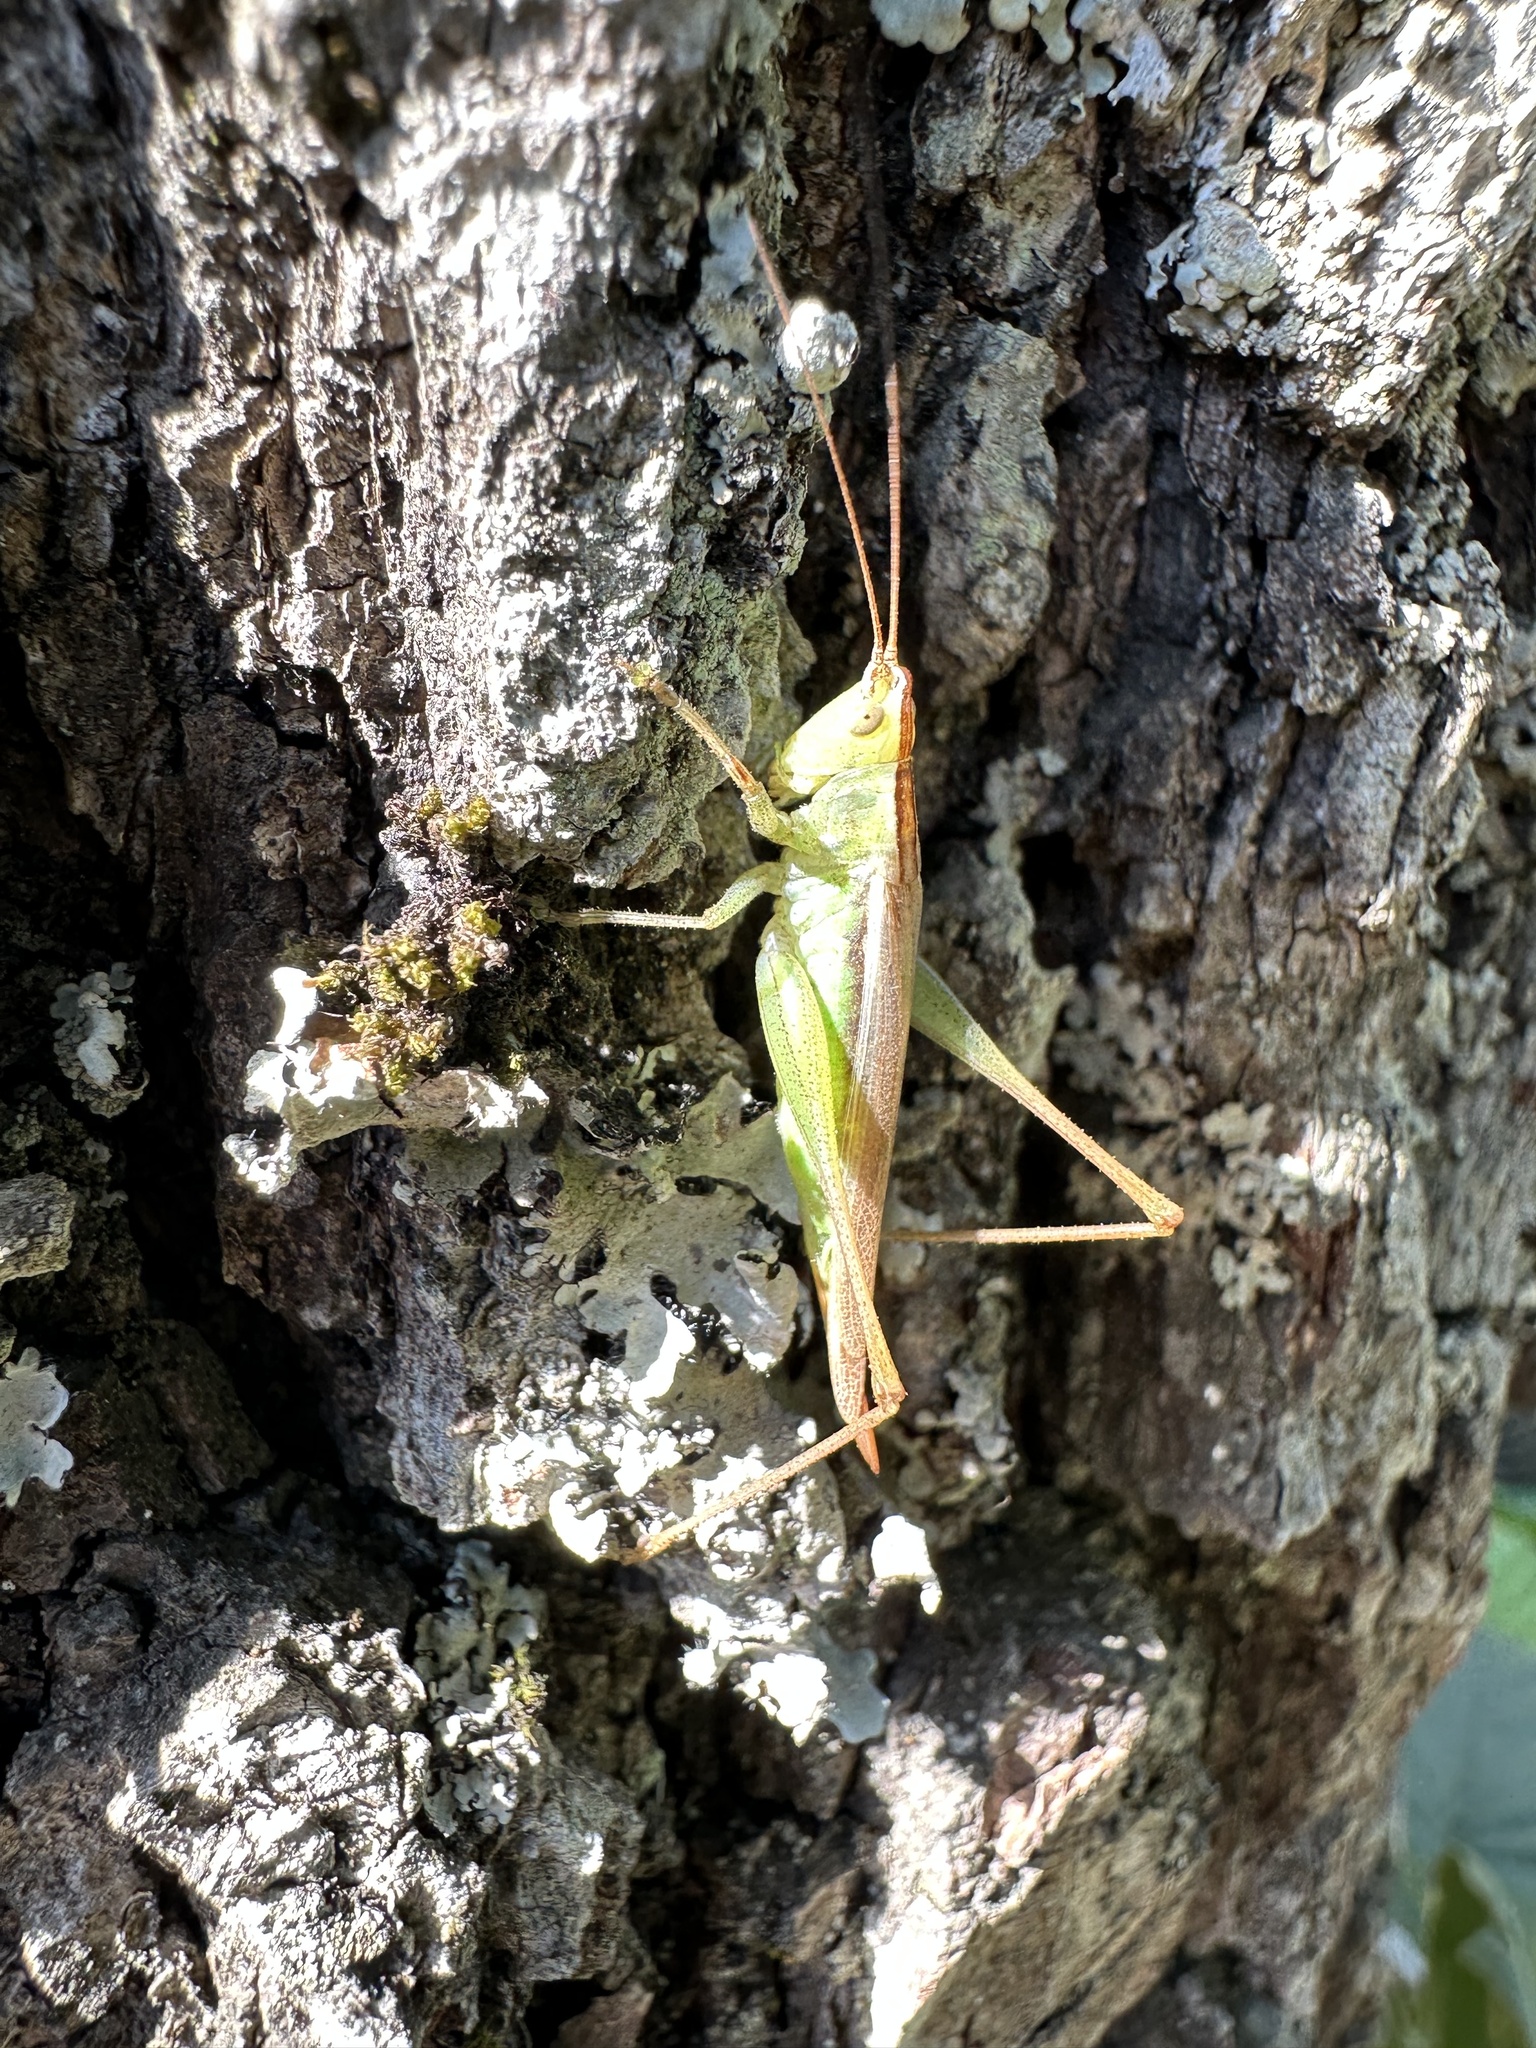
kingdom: Animalia
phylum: Arthropoda
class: Insecta
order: Orthoptera
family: Tettigoniidae
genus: Conocephalus
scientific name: Conocephalus vitticollis
